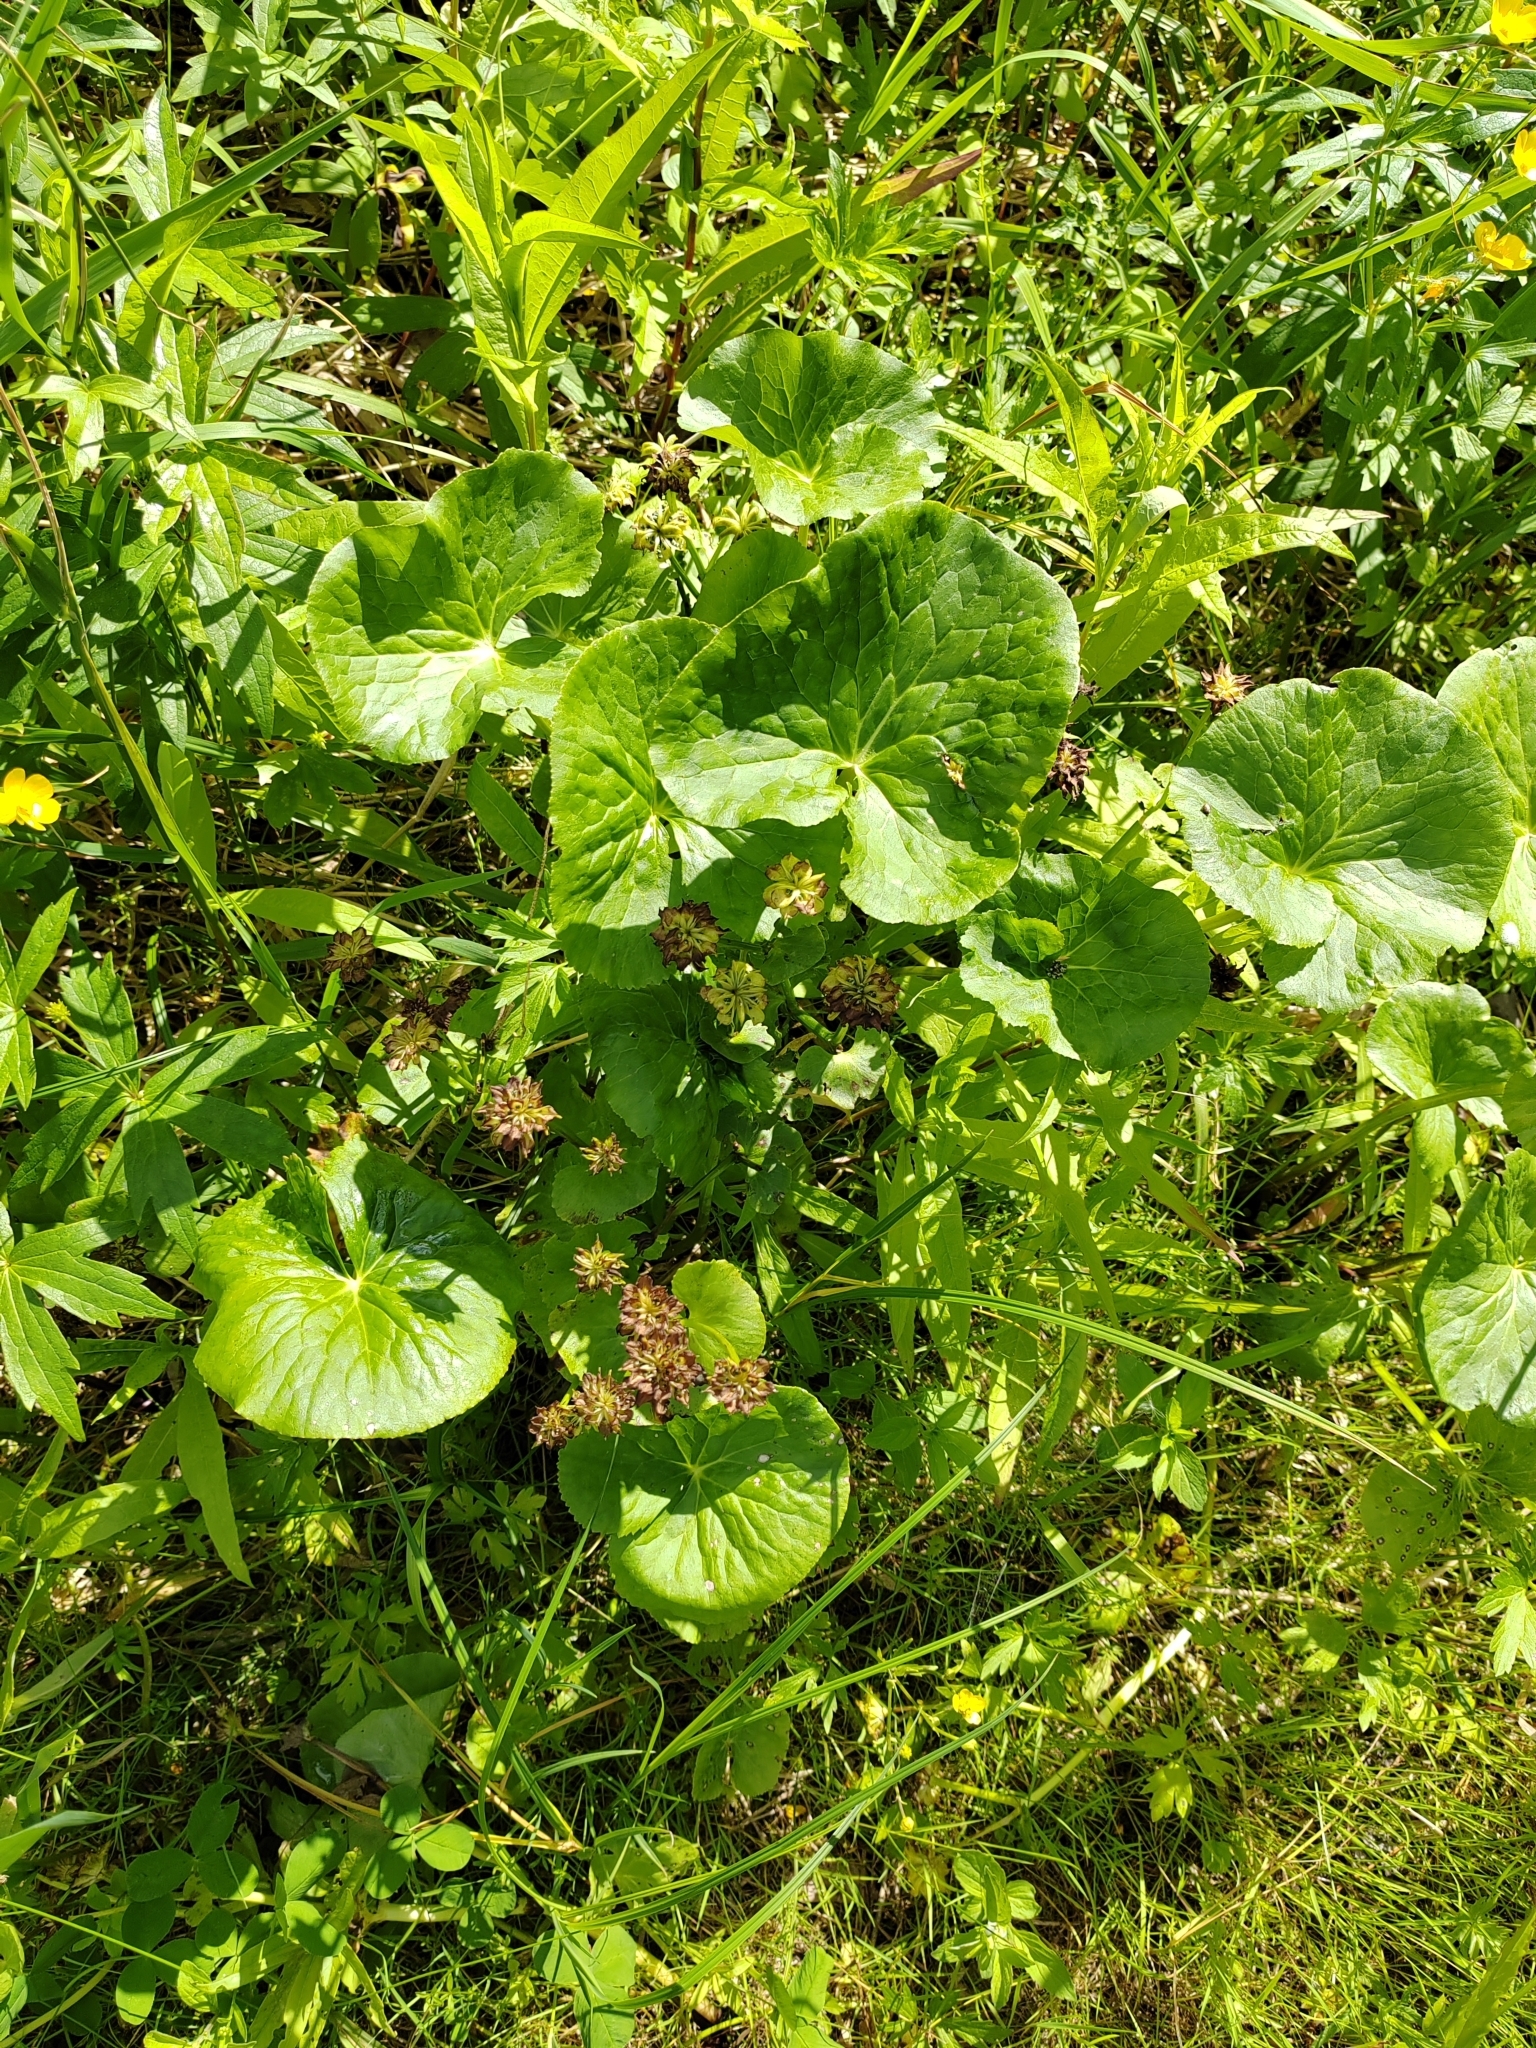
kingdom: Plantae
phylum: Tracheophyta
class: Magnoliopsida
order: Ranunculales
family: Ranunculaceae
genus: Caltha
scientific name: Caltha palustris
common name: Marsh marigold
